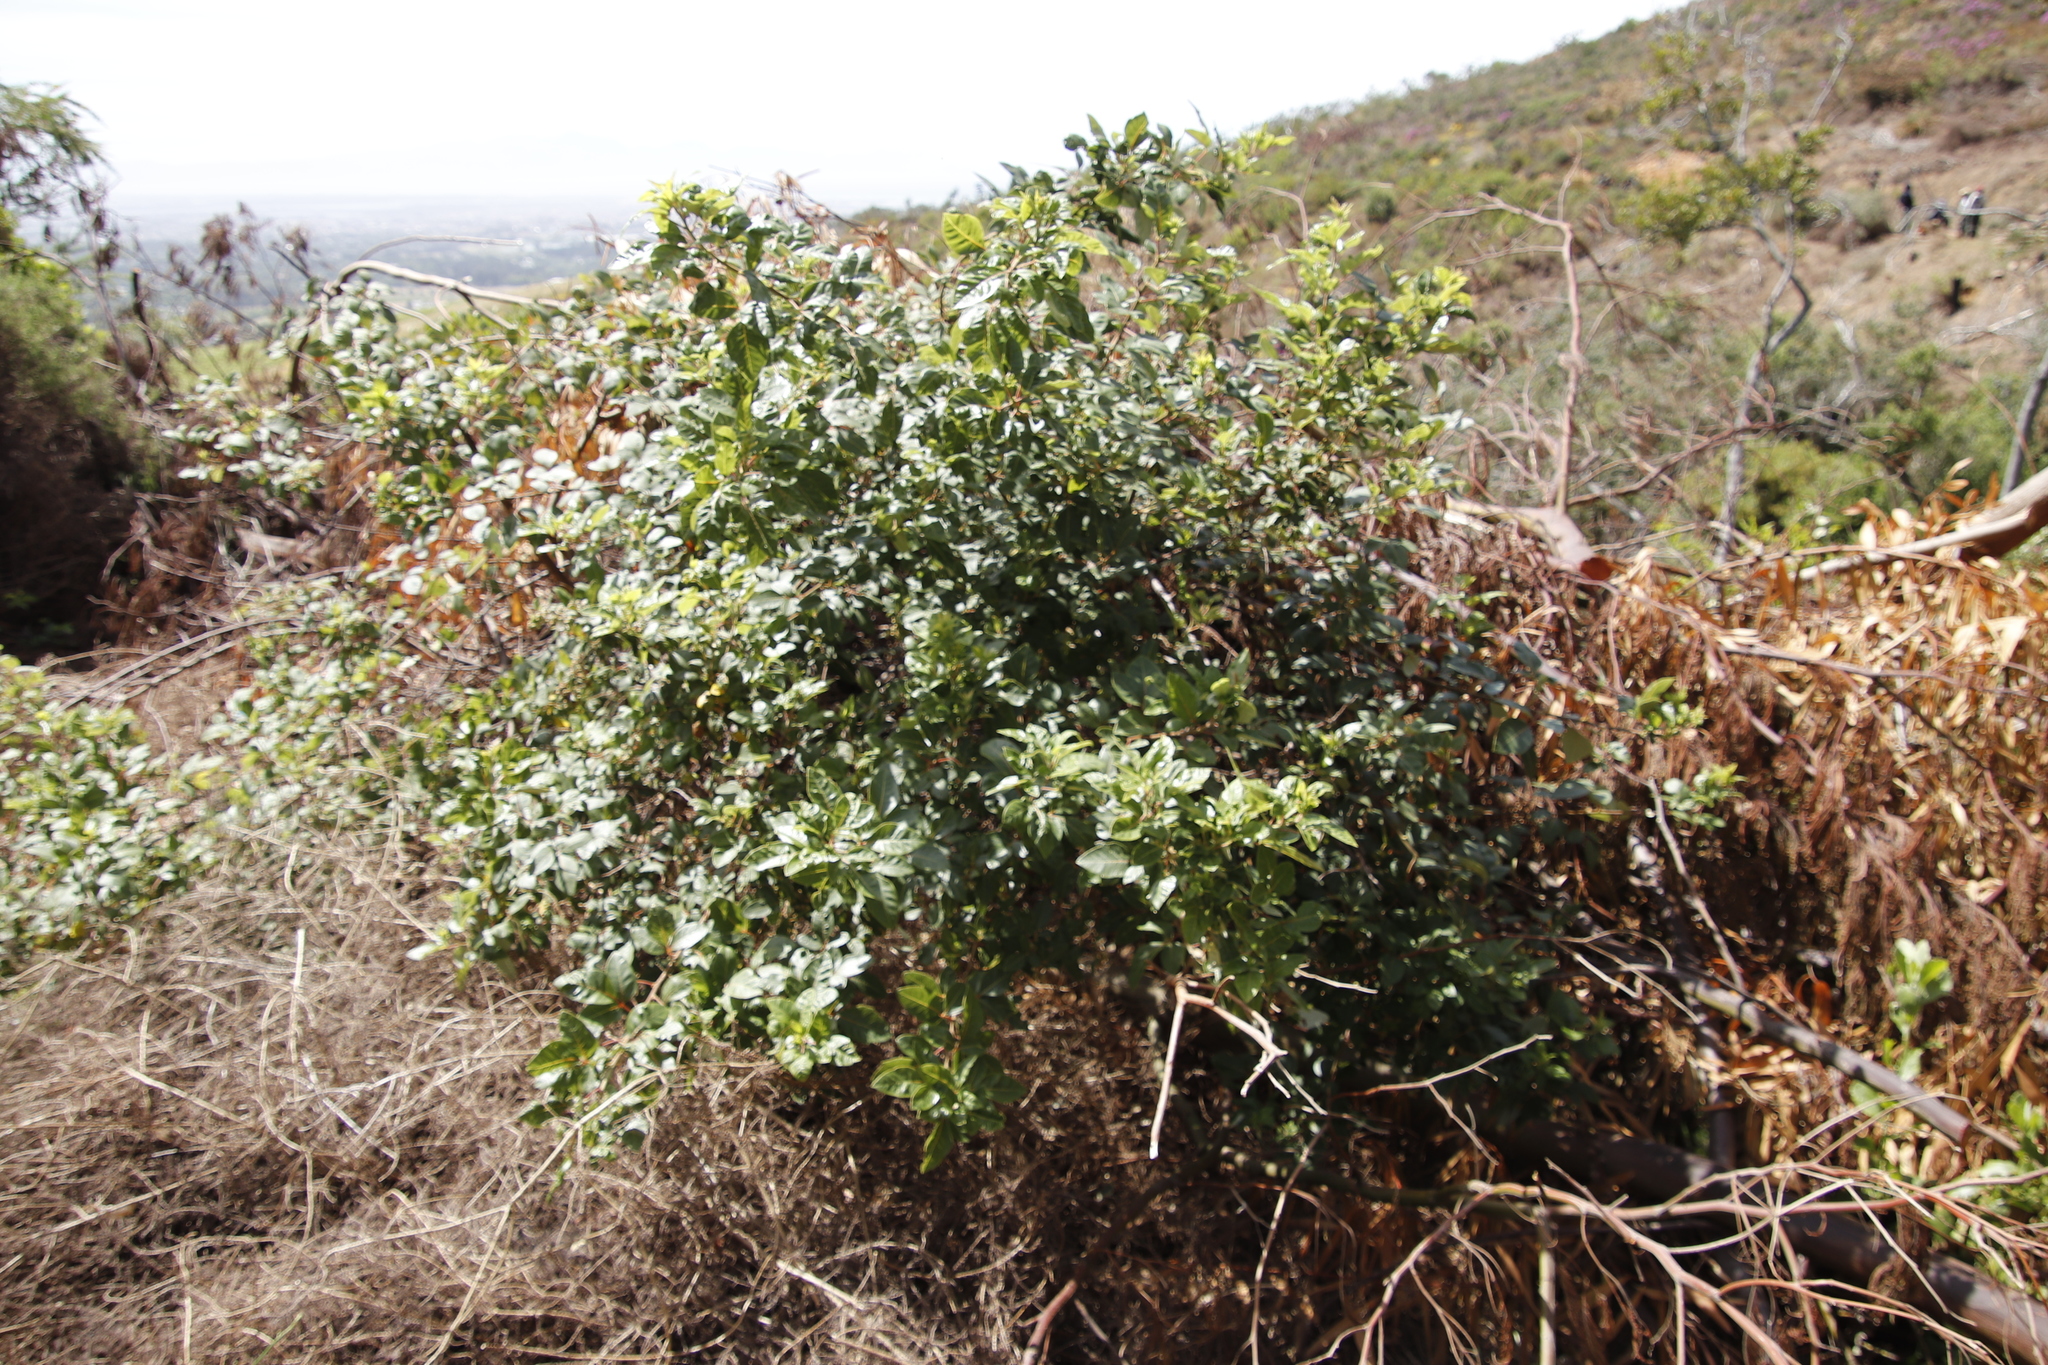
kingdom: Plantae
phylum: Tracheophyta
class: Magnoliopsida
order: Sapindales
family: Anacardiaceae
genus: Searsia
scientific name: Searsia tomentosa
